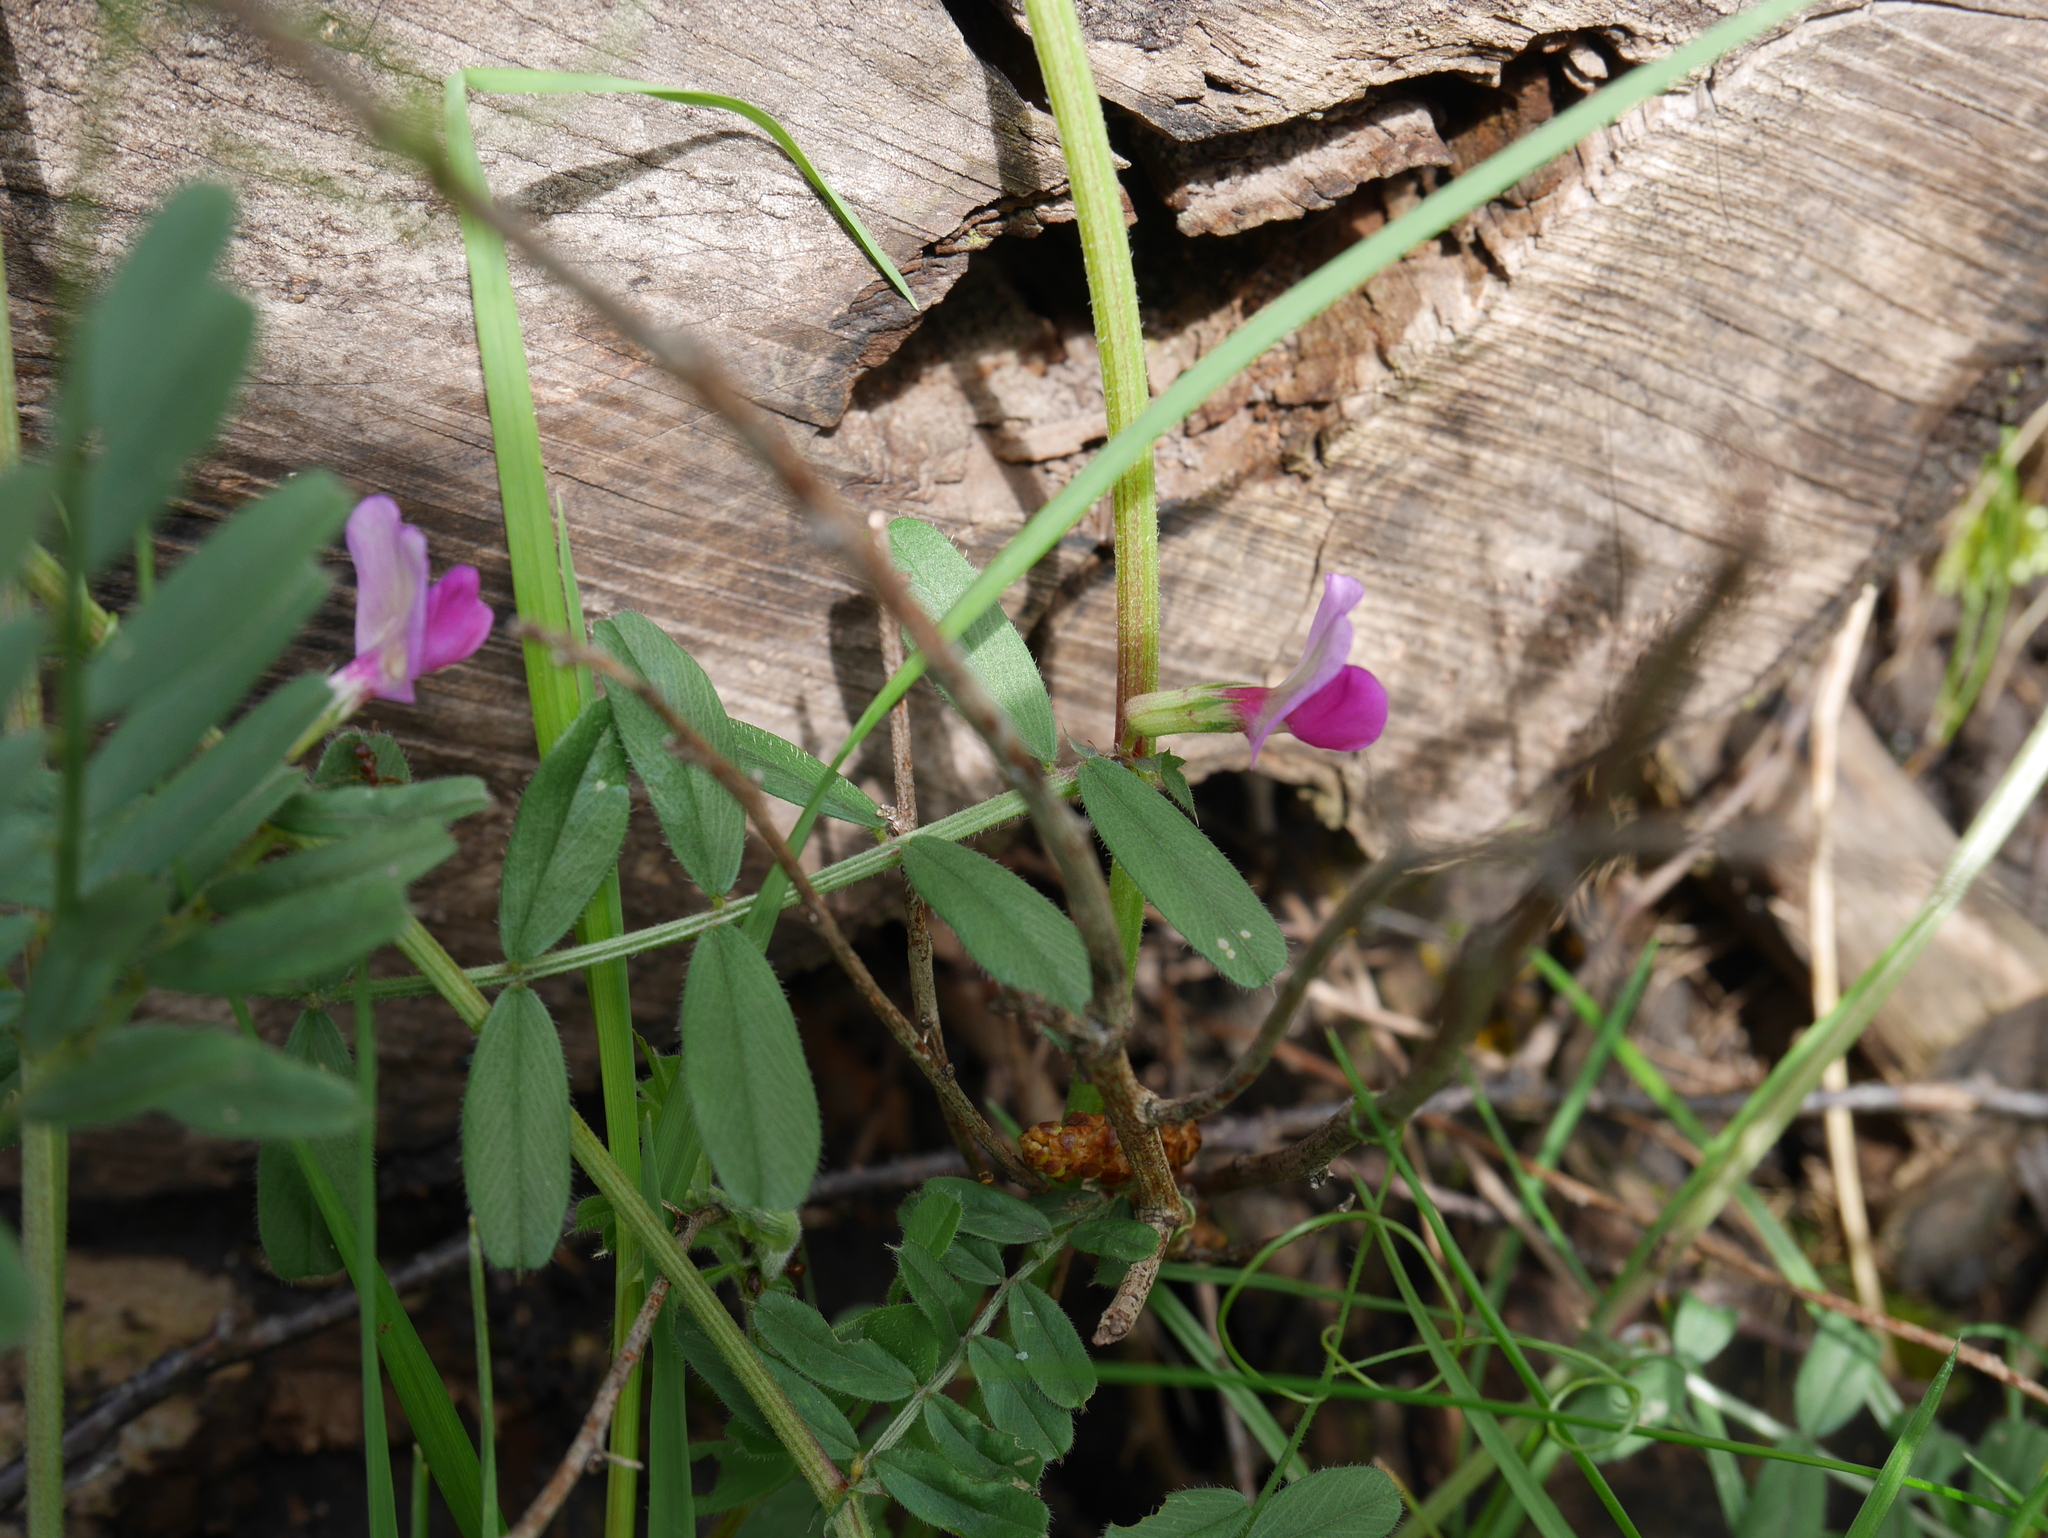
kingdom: Plantae
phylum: Tracheophyta
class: Magnoliopsida
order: Fabales
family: Fabaceae
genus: Vicia
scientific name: Vicia sativa
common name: Garden vetch
